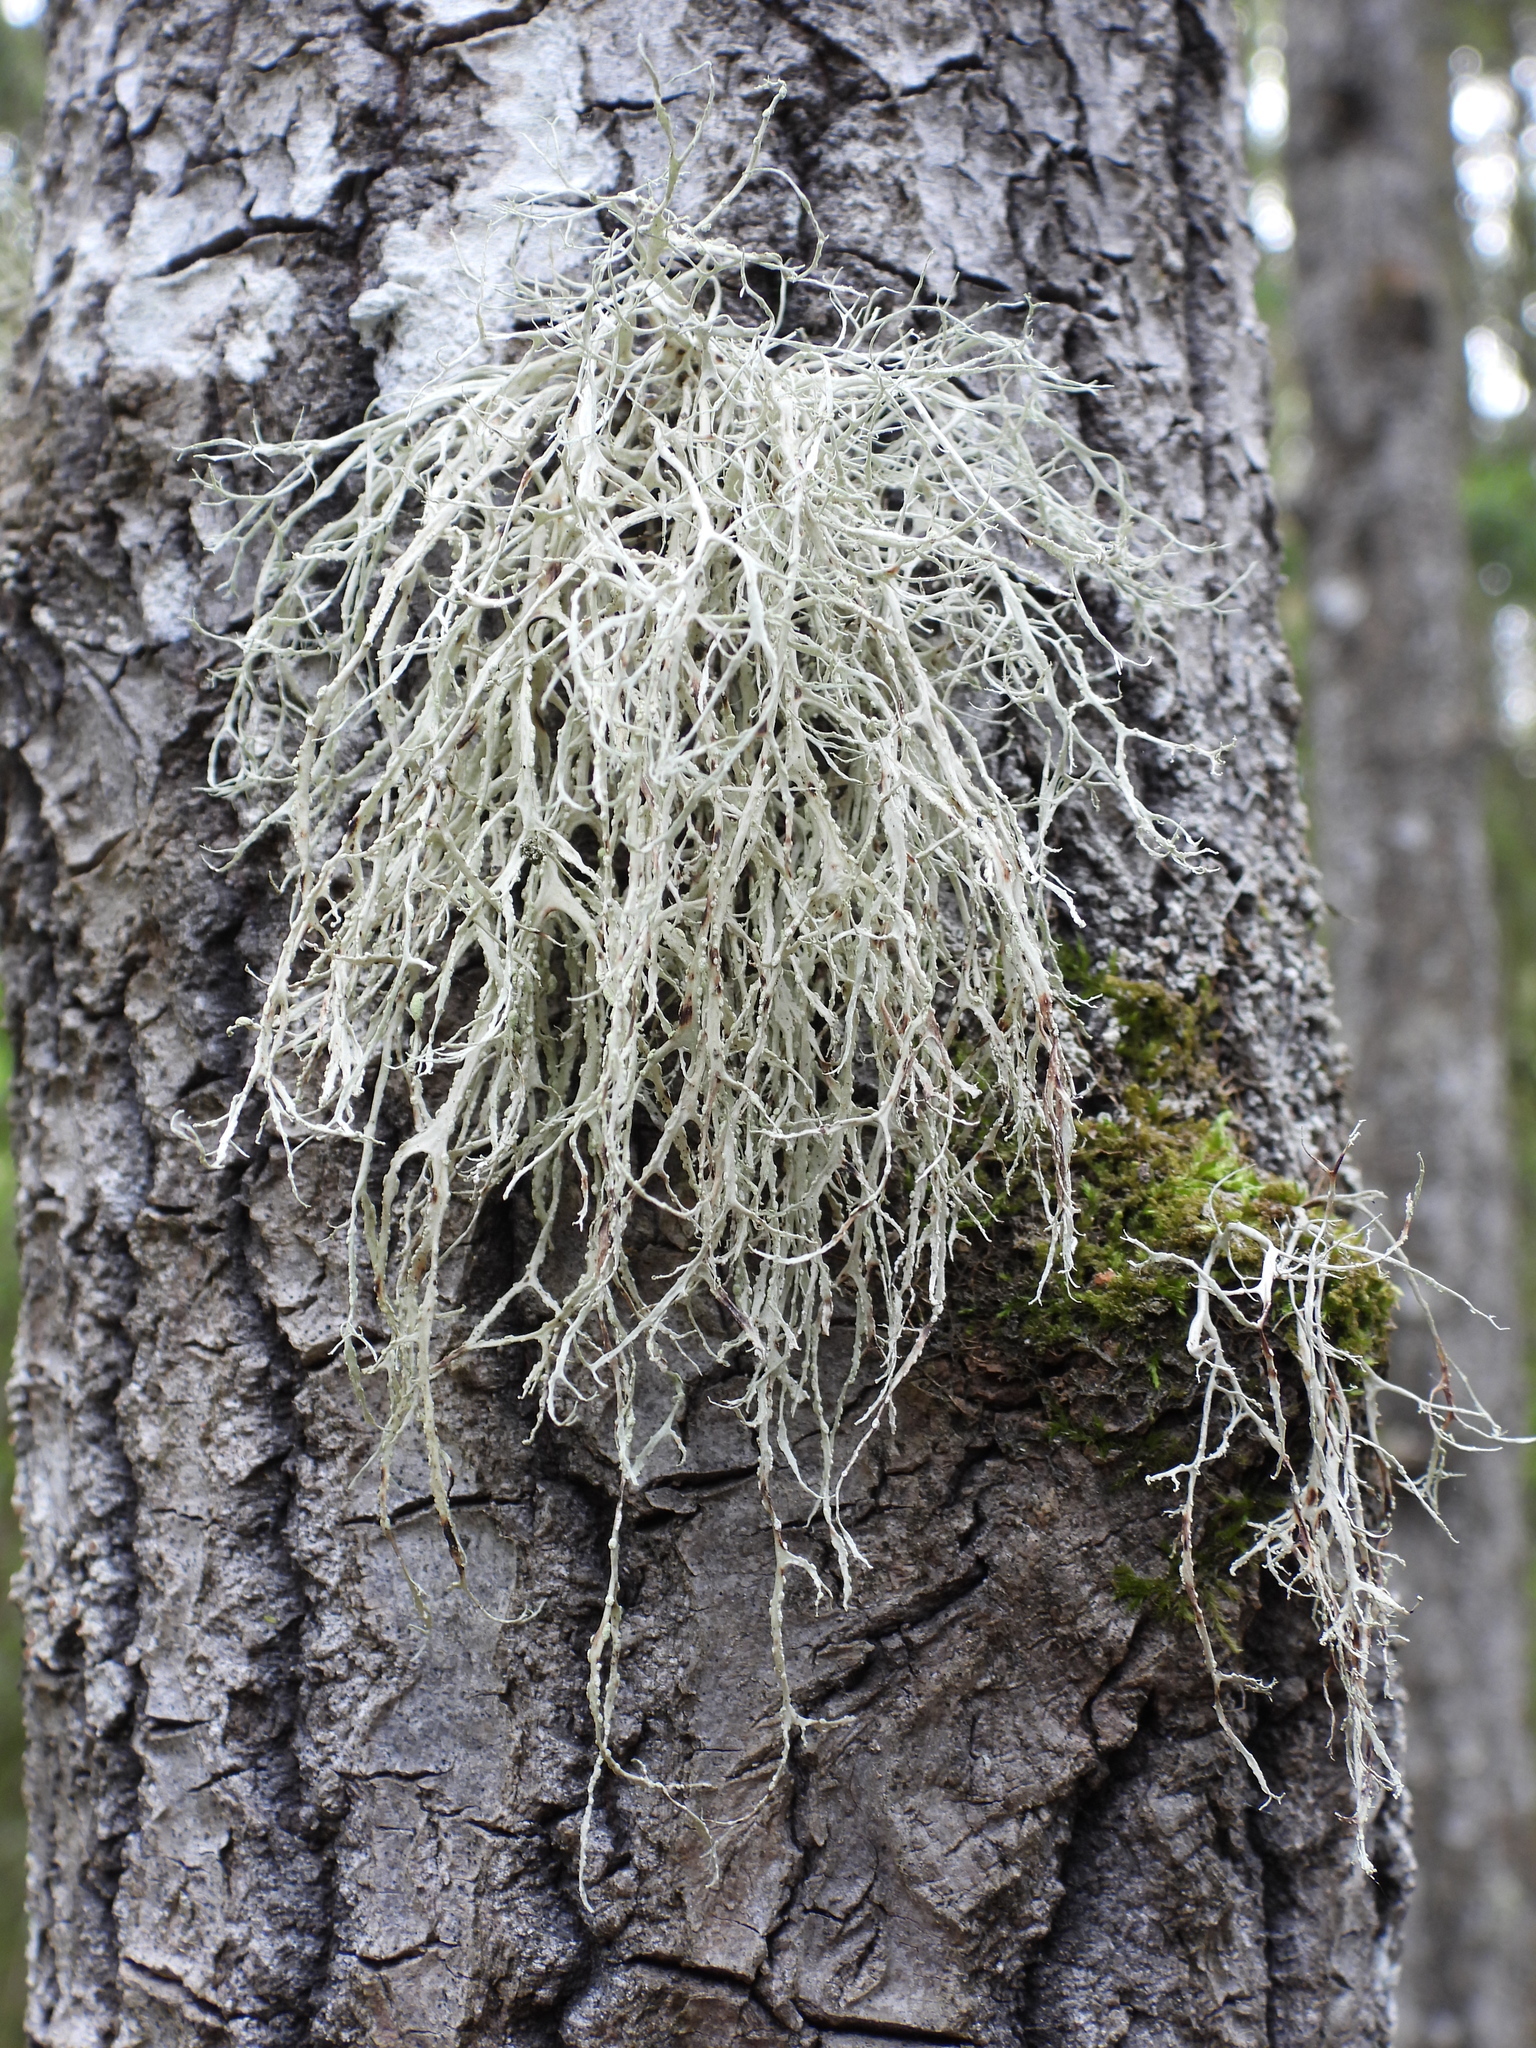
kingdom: Fungi
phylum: Ascomycota
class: Lecanoromycetes
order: Lecanorales
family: Ramalinaceae
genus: Ramalina
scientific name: Ramalina farinacea
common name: Farinose cartilage lichen
